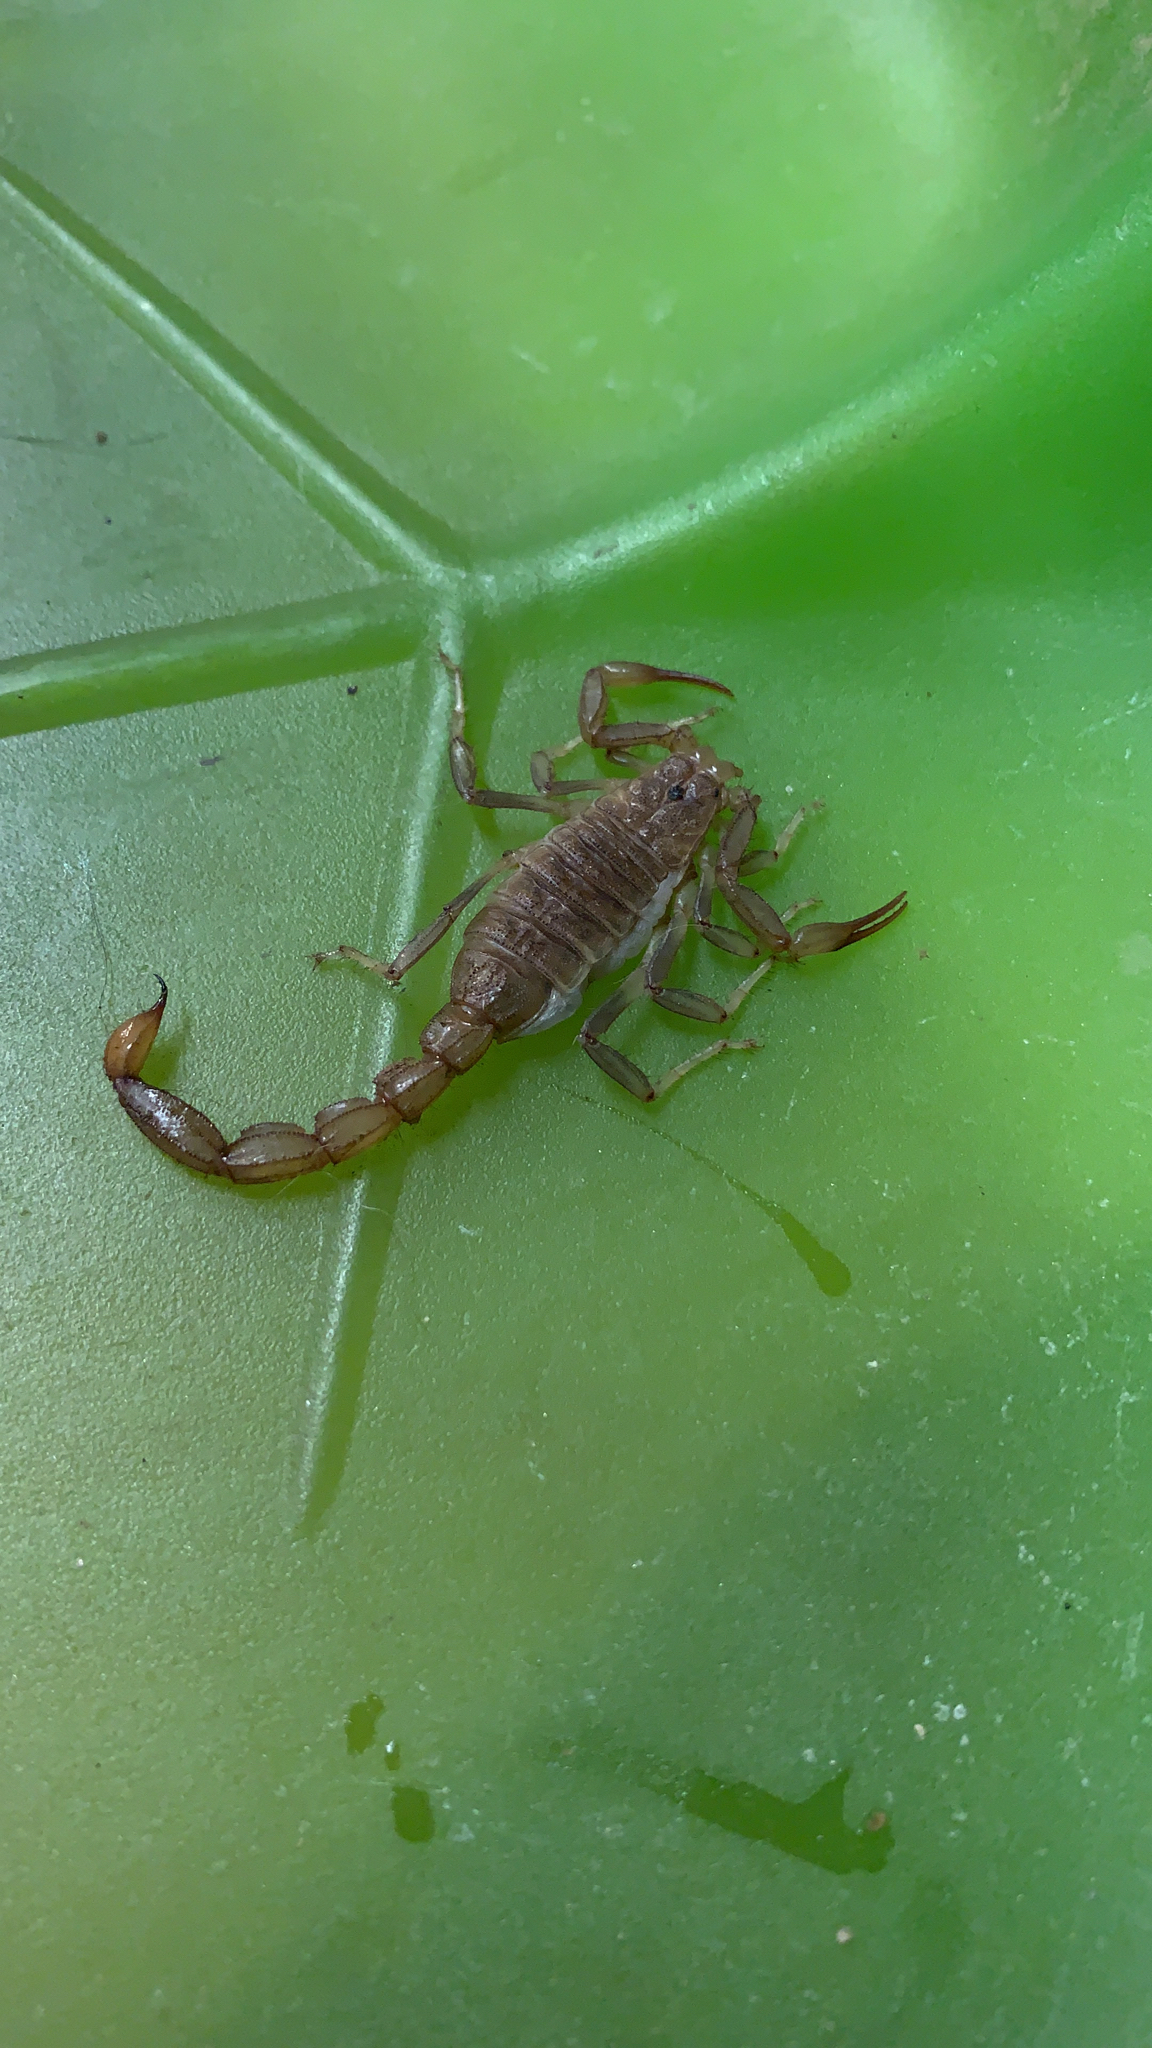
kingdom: Animalia
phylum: Arthropoda
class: Arachnida
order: Scorpiones
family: Vaejovidae
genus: Paravaejovis
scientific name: Paravaejovis puritanus
